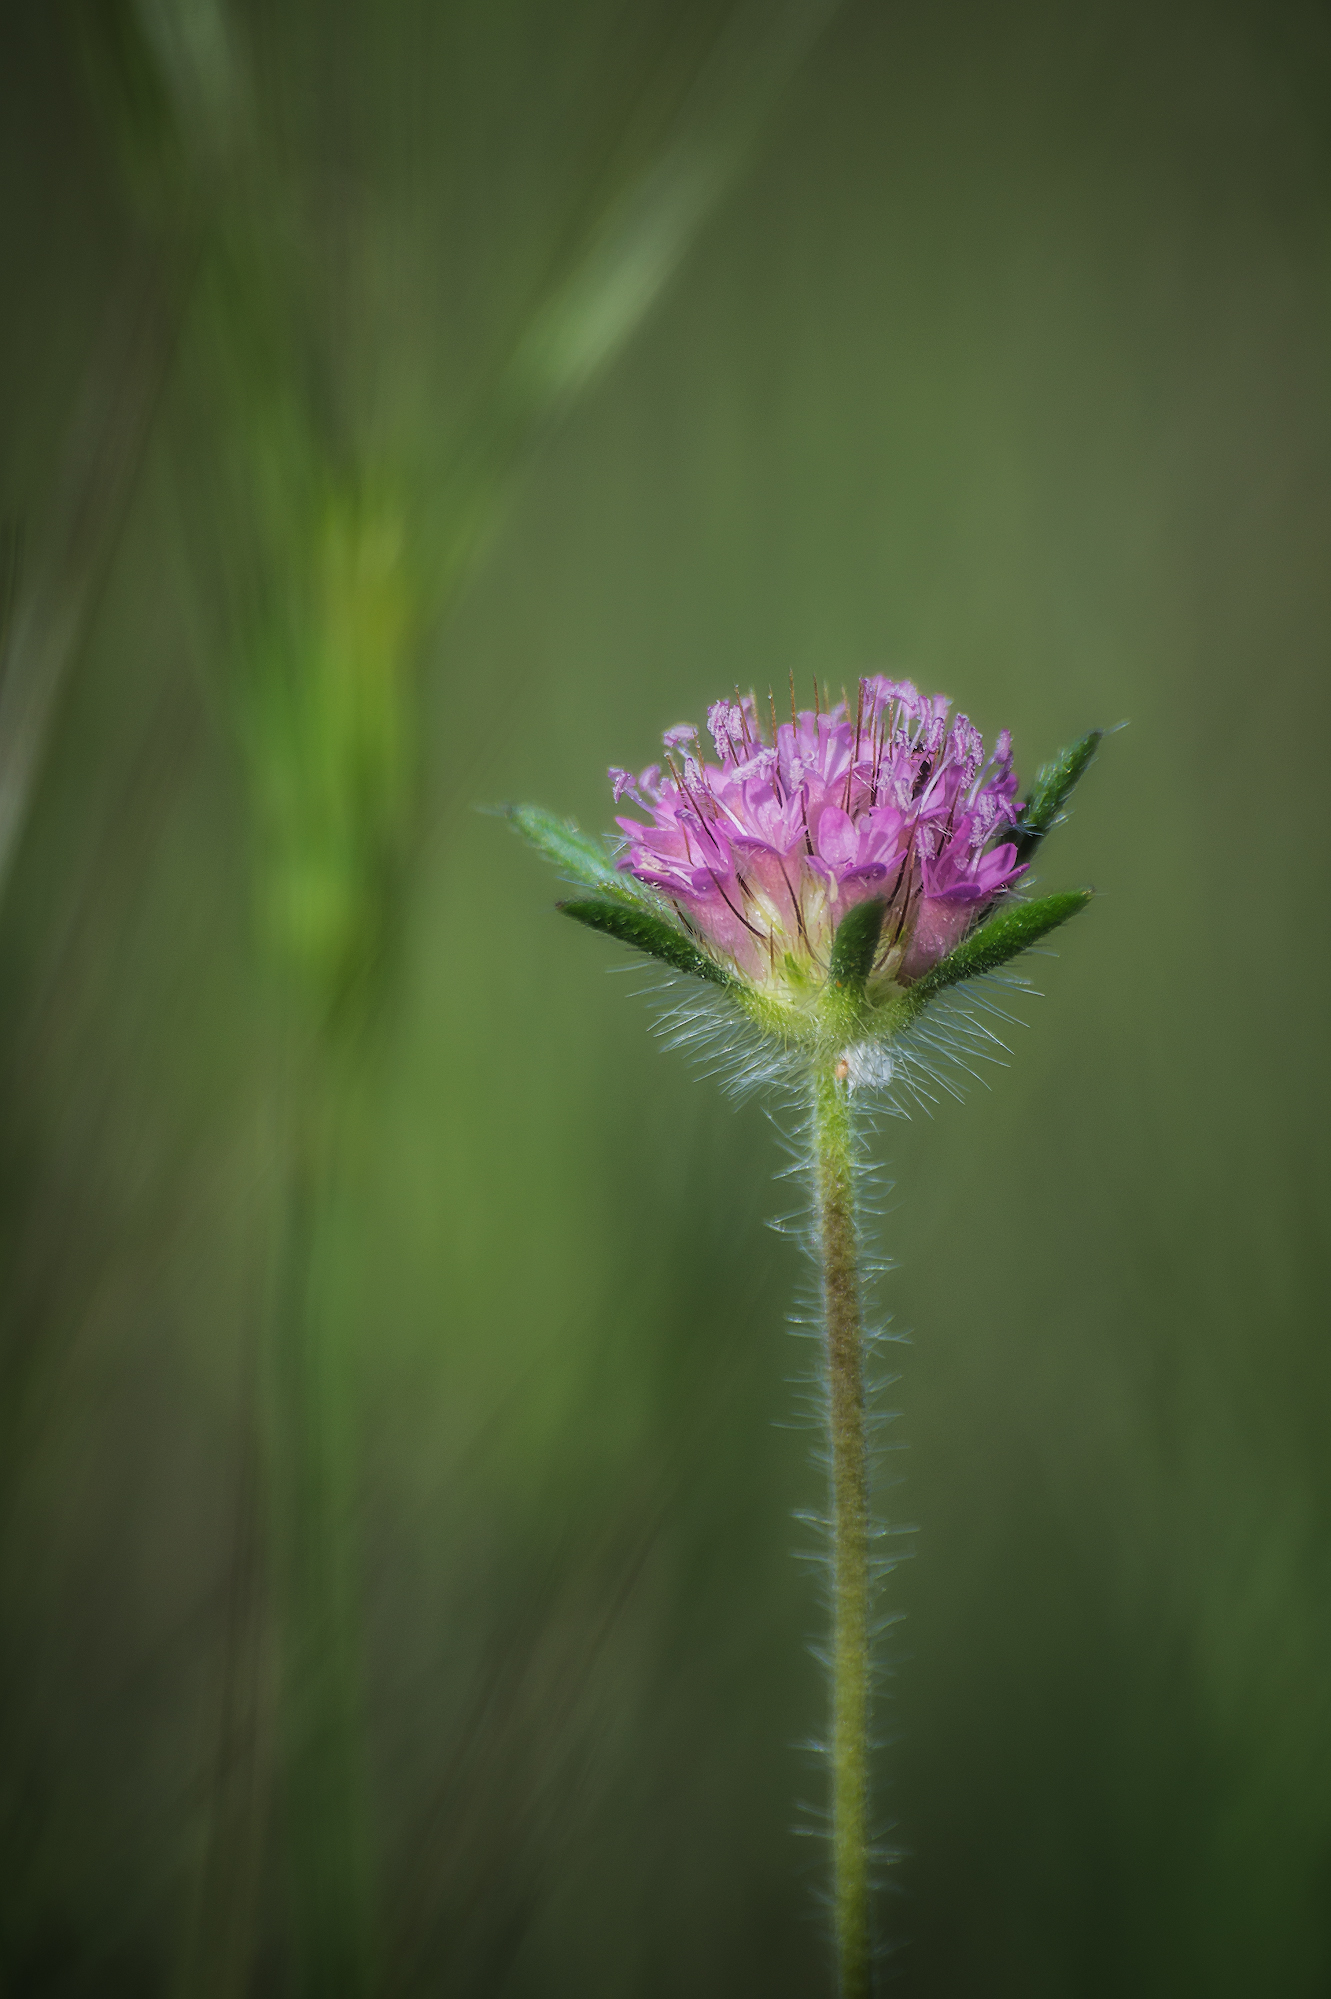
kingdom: Plantae
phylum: Tracheophyta
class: Magnoliopsida
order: Dipsacales
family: Caprifoliaceae
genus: Lomelosia
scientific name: Lomelosia micrantha
